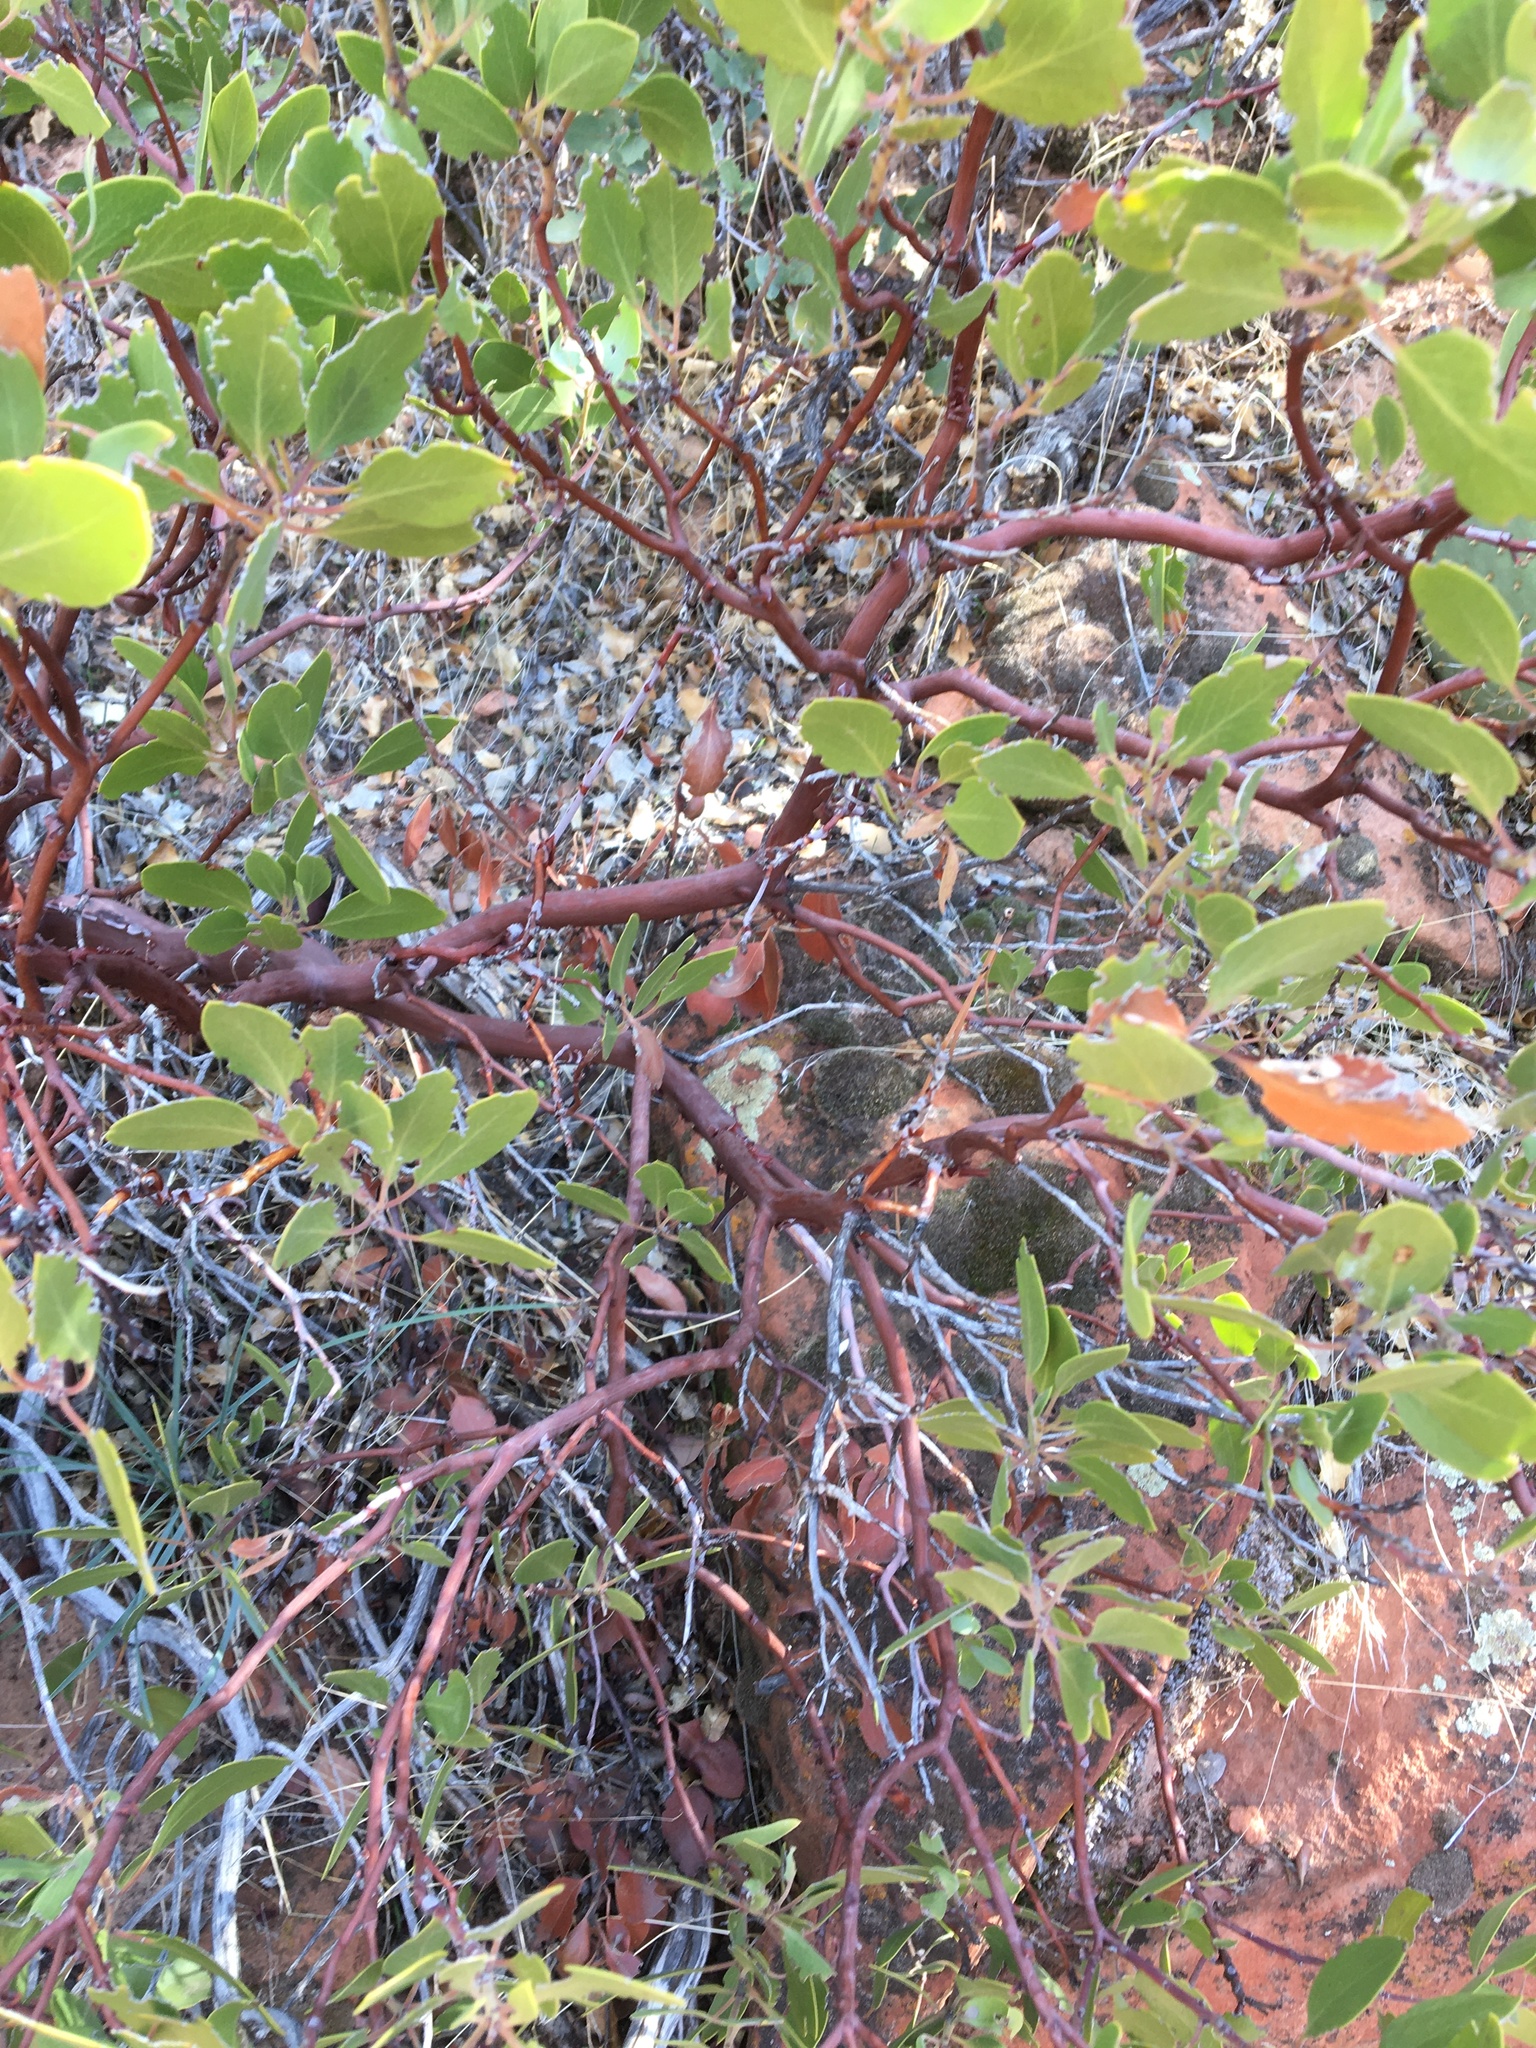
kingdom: Plantae
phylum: Tracheophyta
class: Magnoliopsida
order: Ericales
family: Ericaceae
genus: Arctostaphylos
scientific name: Arctostaphylos pungens
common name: Mexican manzanita
